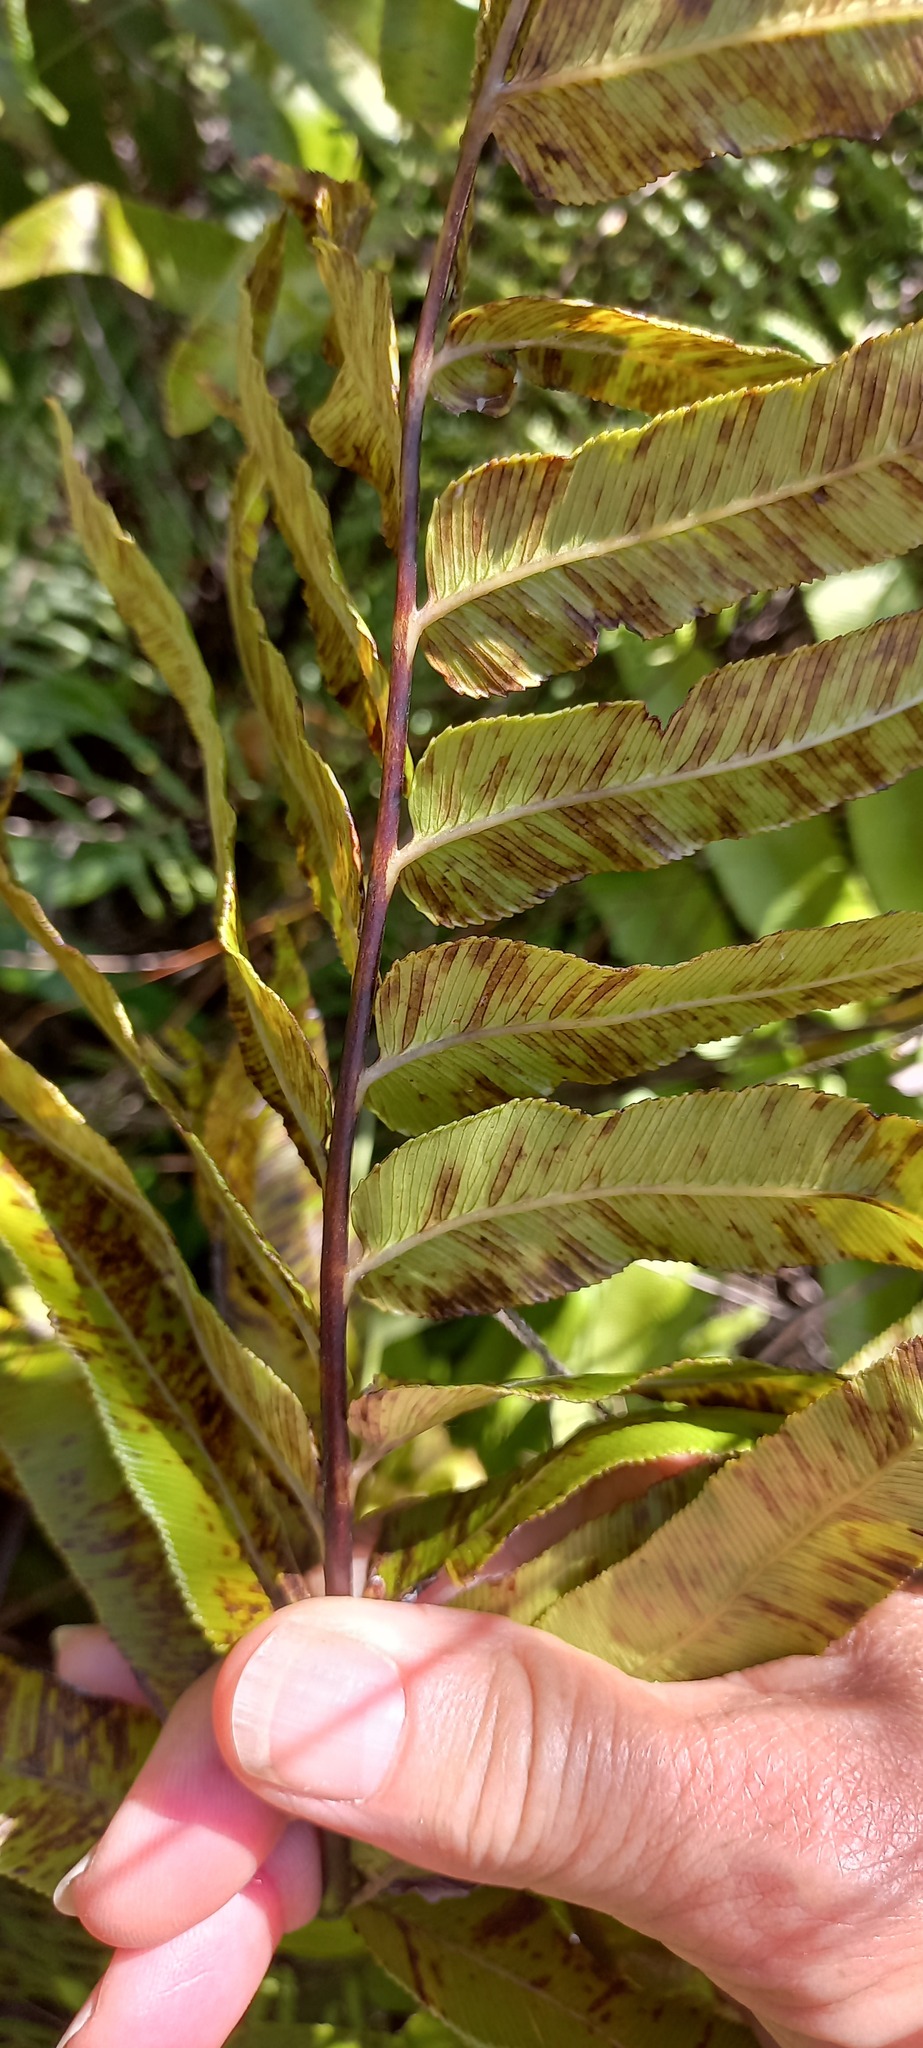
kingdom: Plantae
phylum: Tracheophyta
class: Polypodiopsida
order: Polypodiales
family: Blechnaceae
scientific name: Blechnaceae
